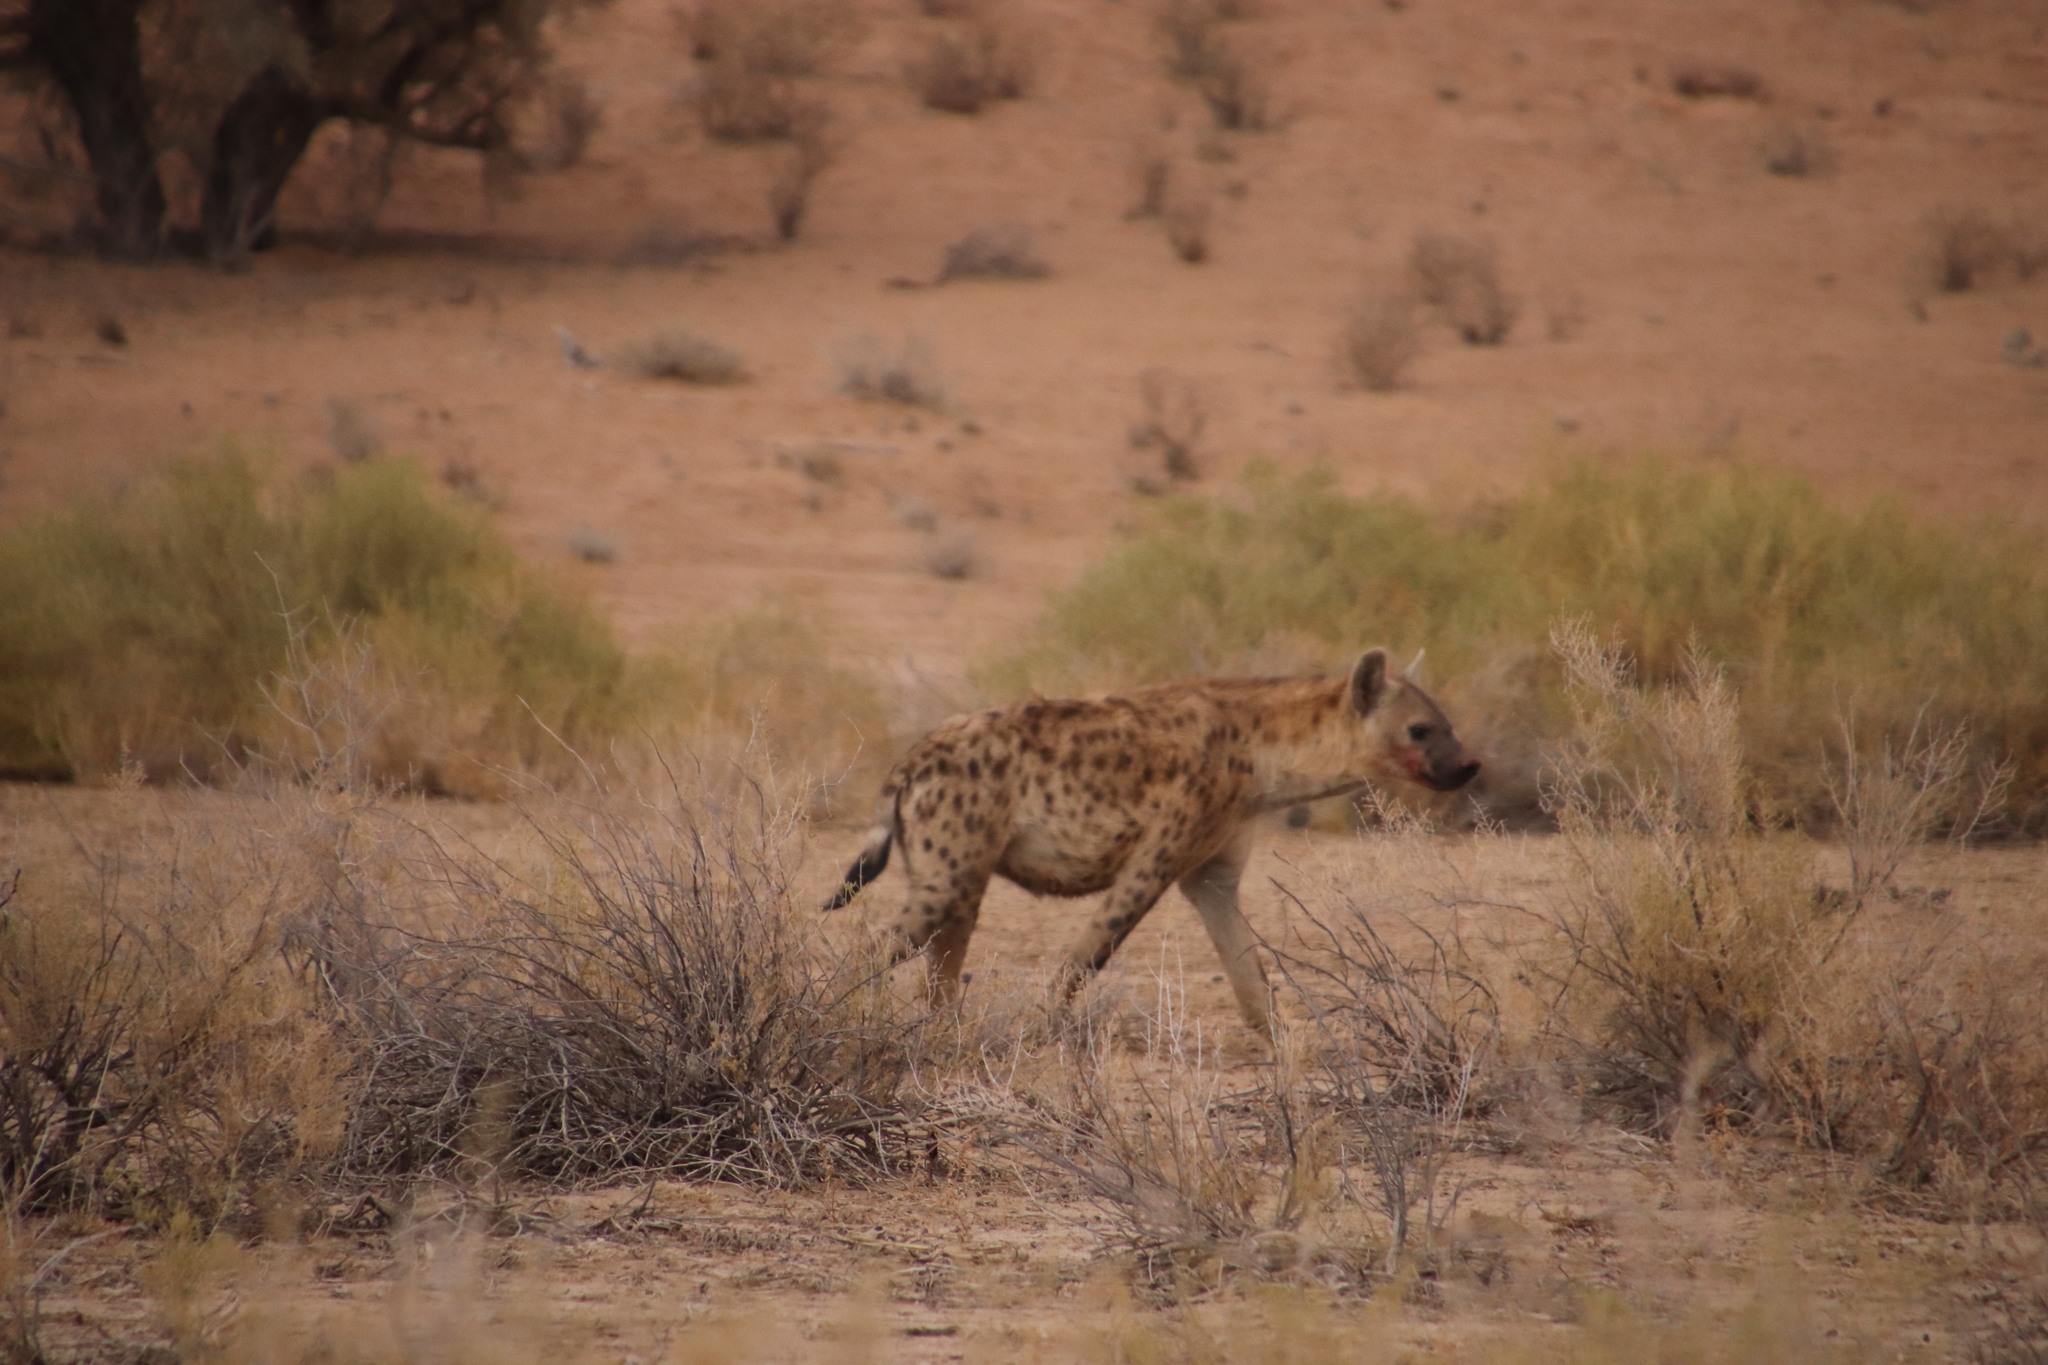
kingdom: Animalia
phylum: Chordata
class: Mammalia
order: Carnivora
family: Hyaenidae
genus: Crocuta
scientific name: Crocuta crocuta
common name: Spotted hyaena
